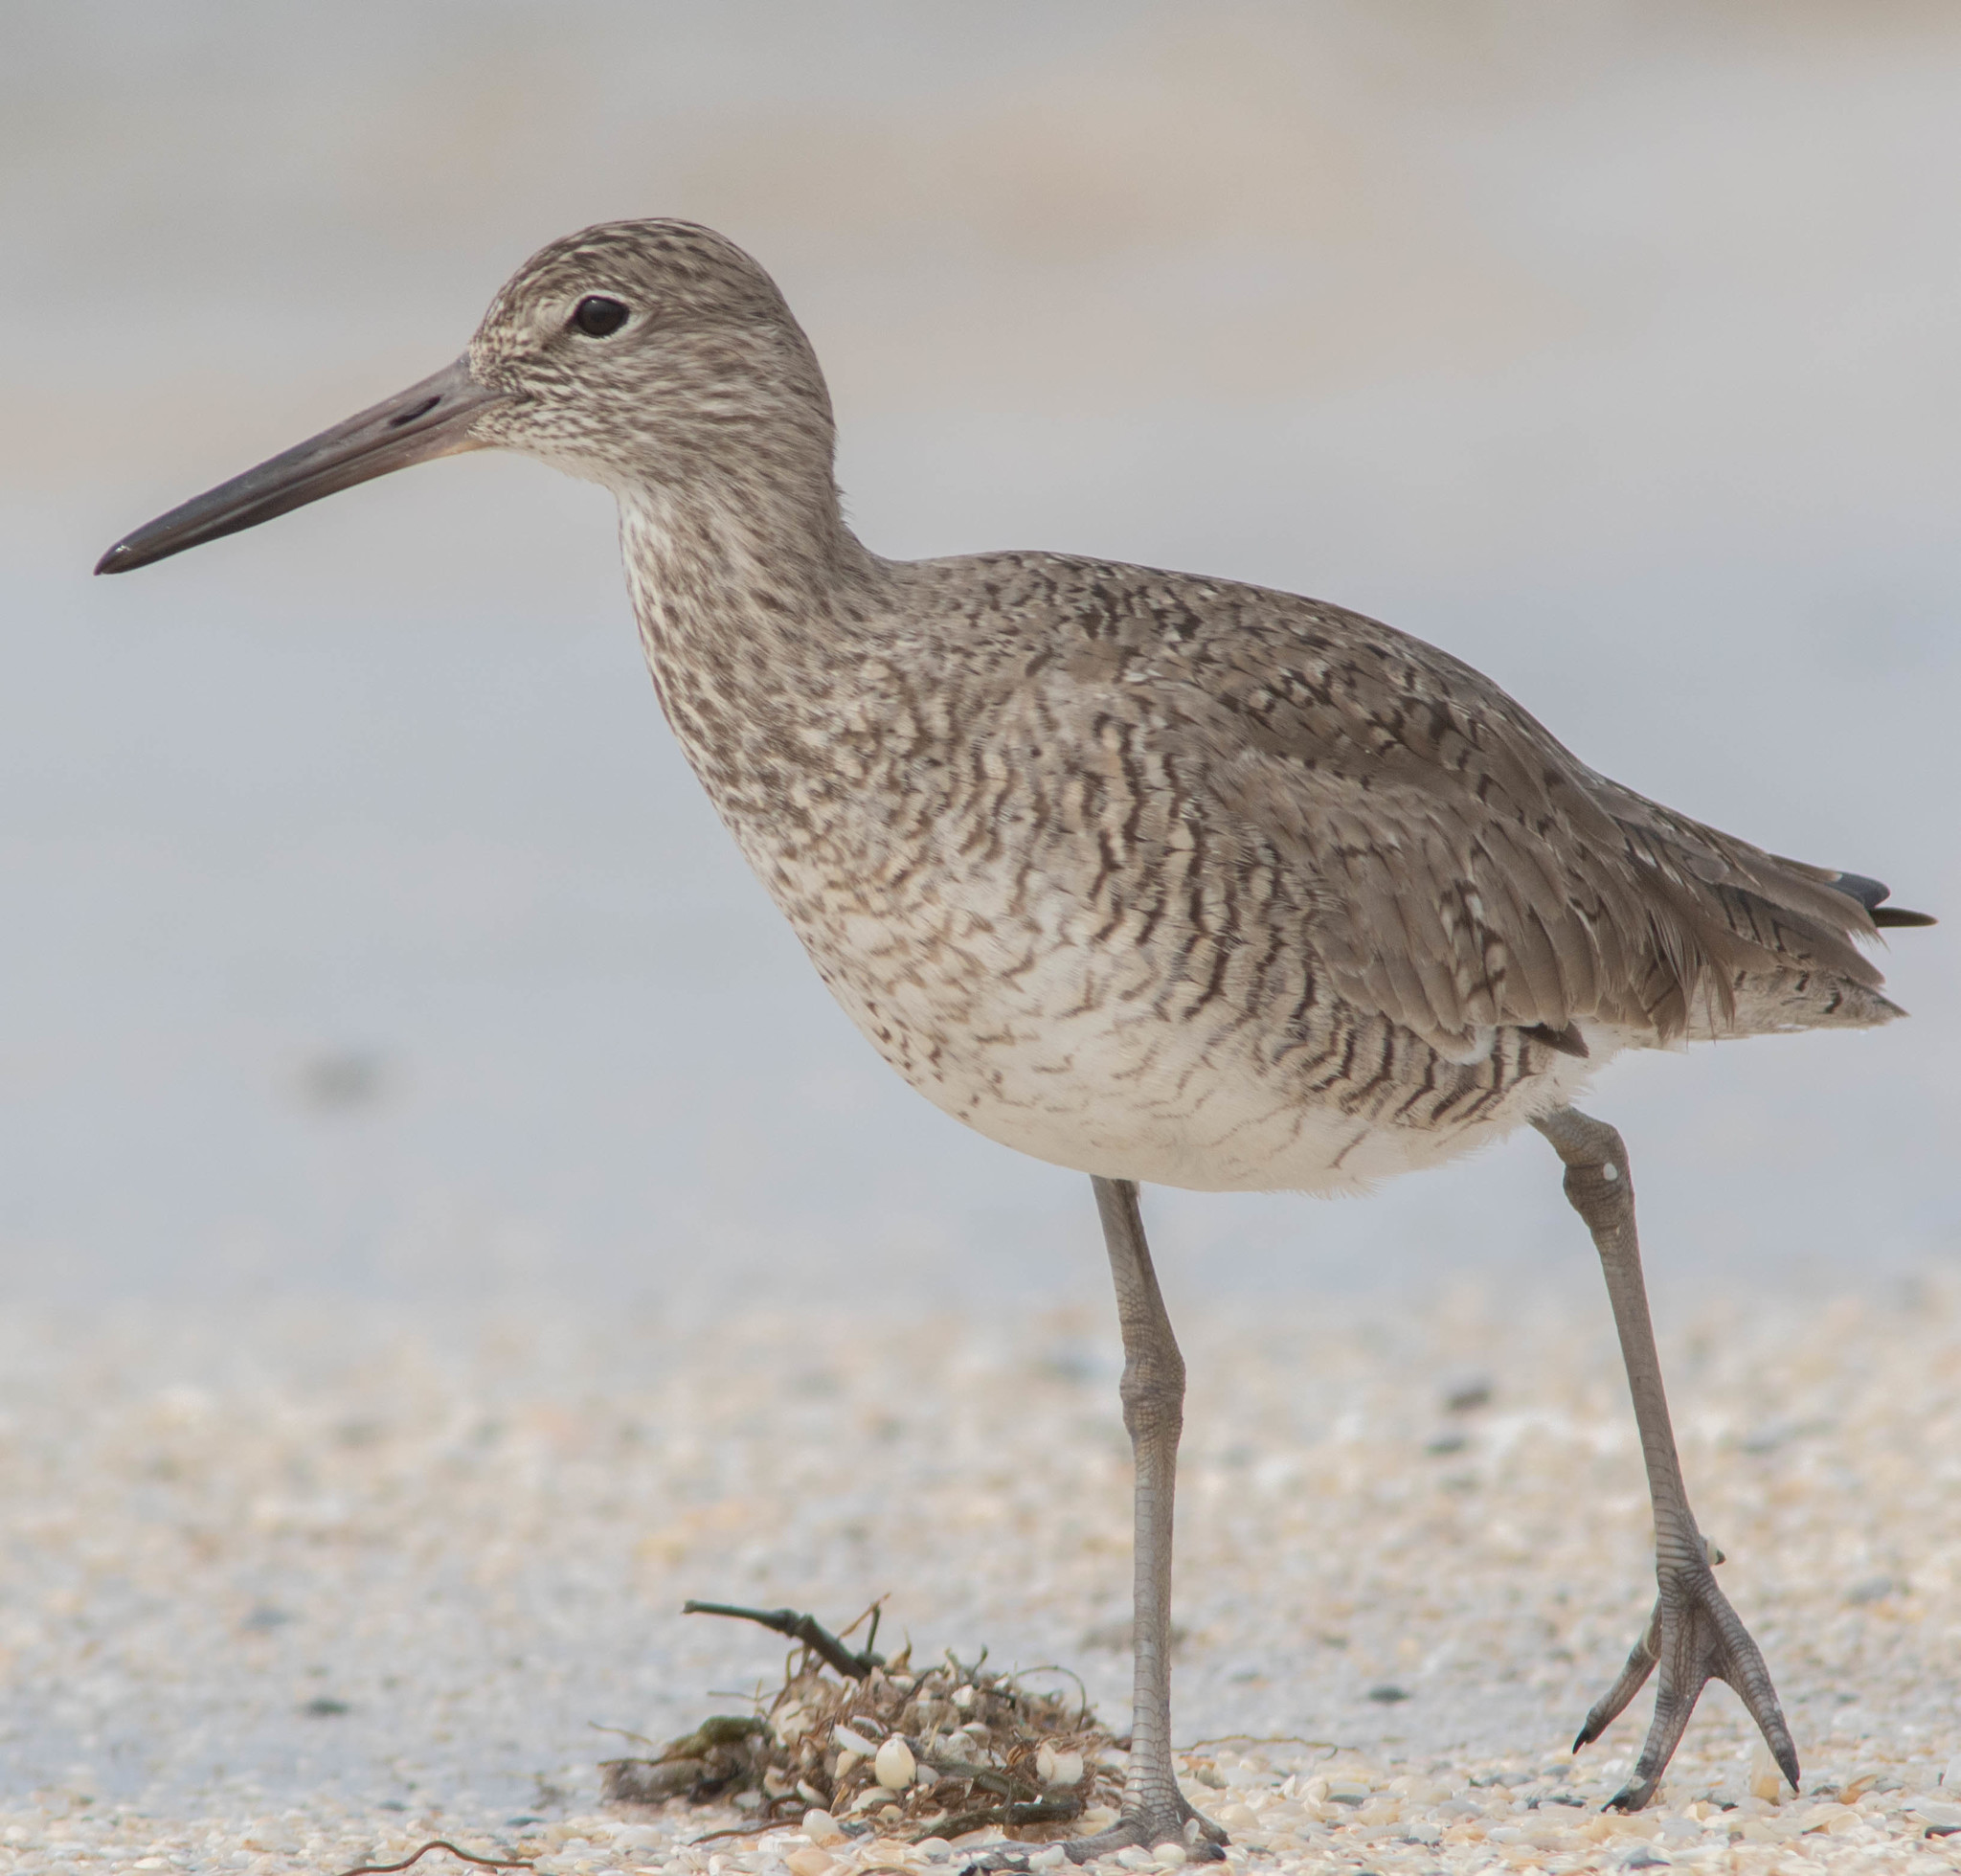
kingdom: Animalia
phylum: Chordata
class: Aves
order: Charadriiformes
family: Scolopacidae
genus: Tringa
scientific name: Tringa semipalmata
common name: Willet
